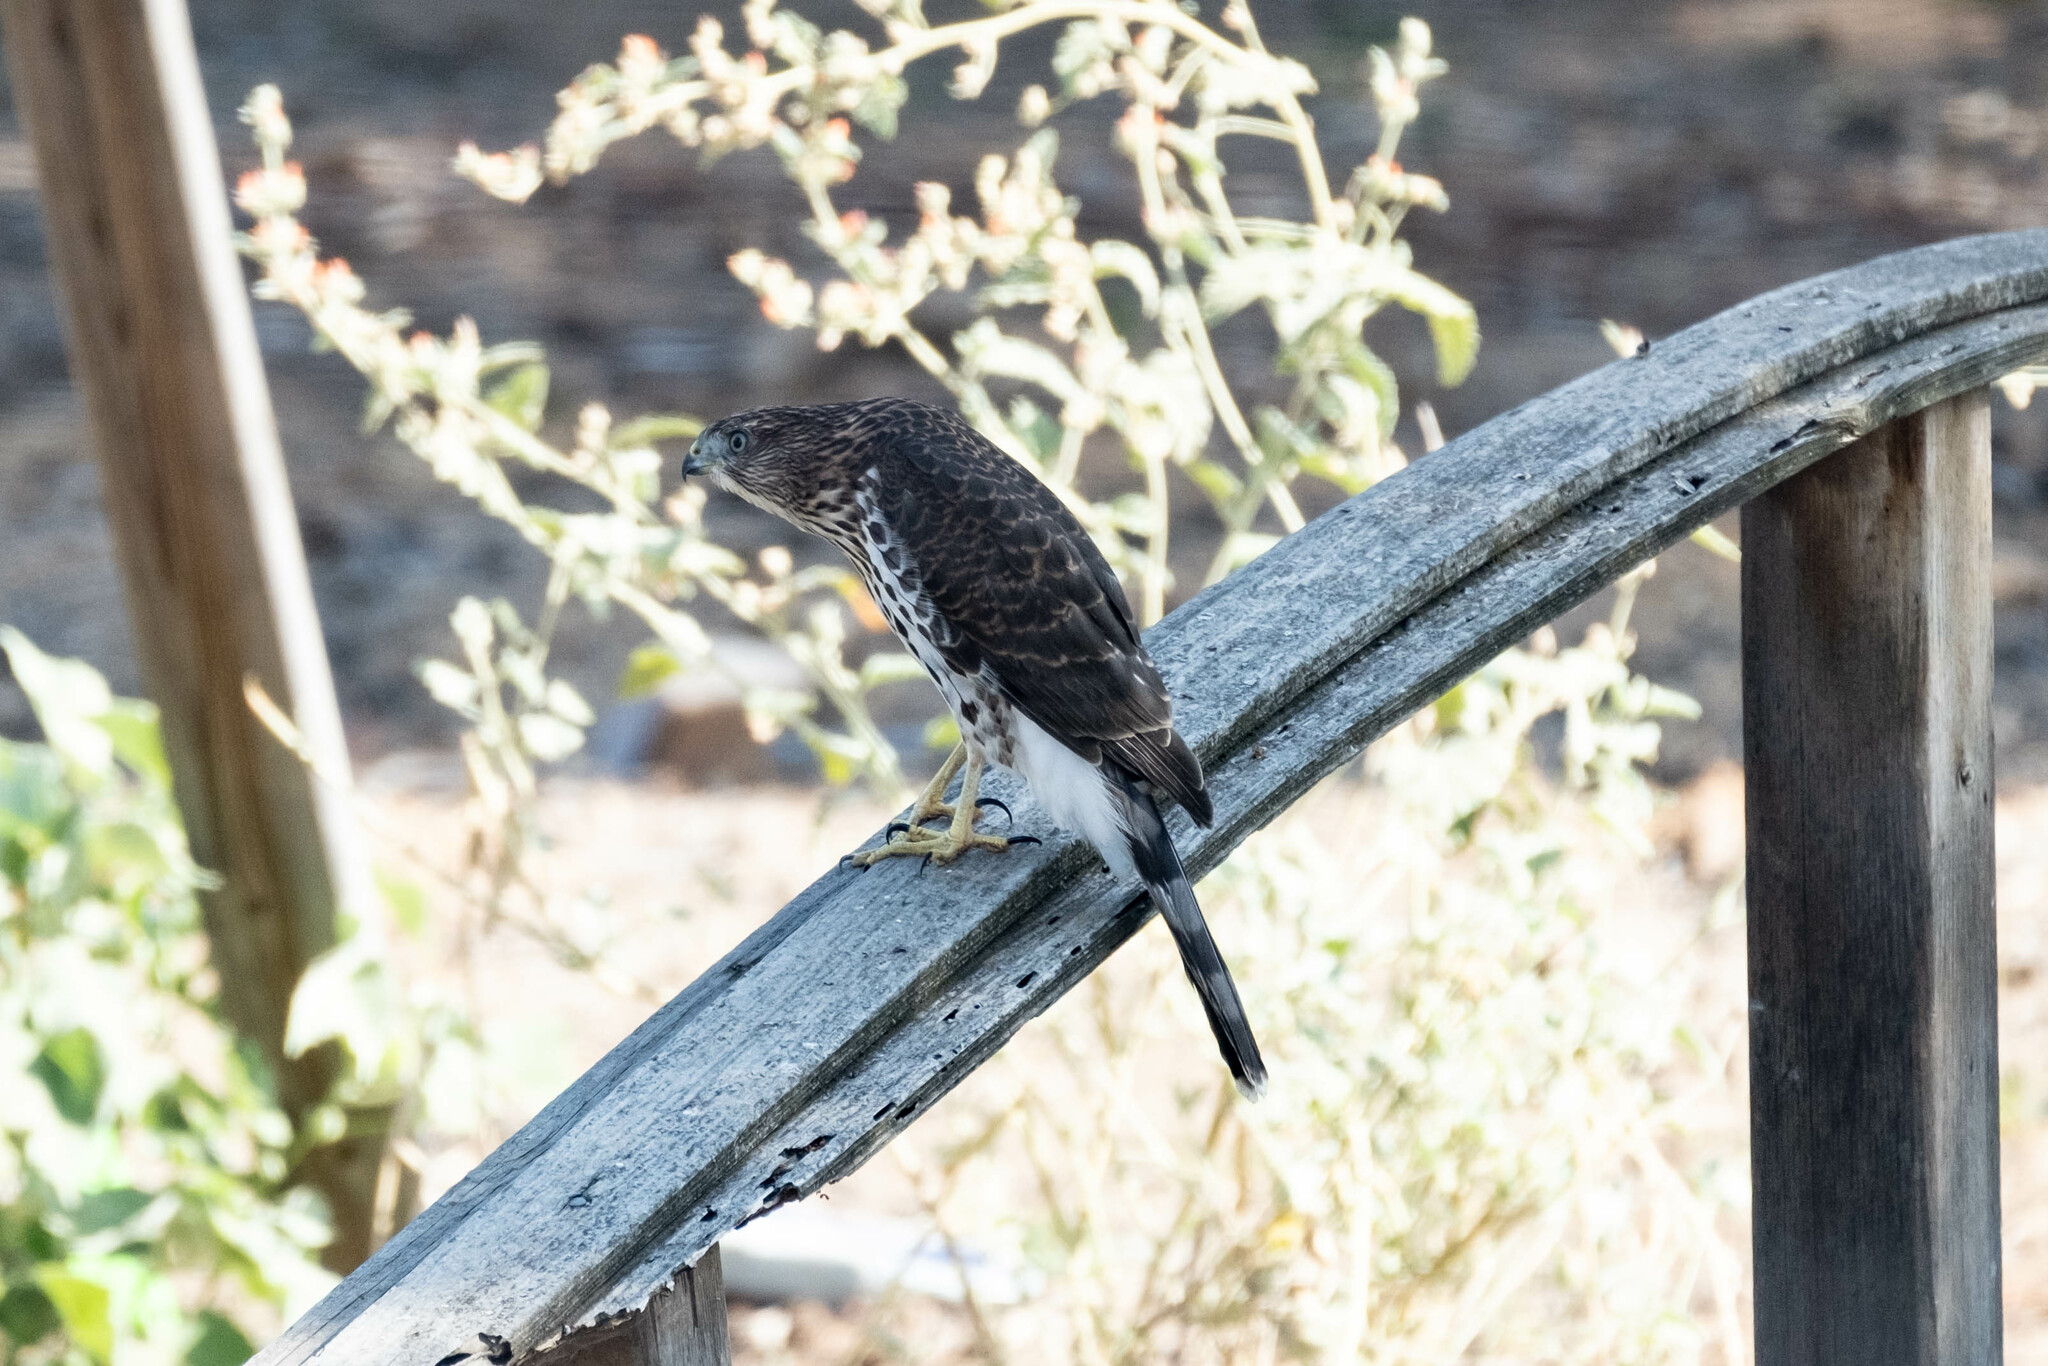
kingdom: Animalia
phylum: Chordata
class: Aves
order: Accipitriformes
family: Accipitridae
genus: Accipiter
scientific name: Accipiter cooperii
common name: Cooper's hawk
